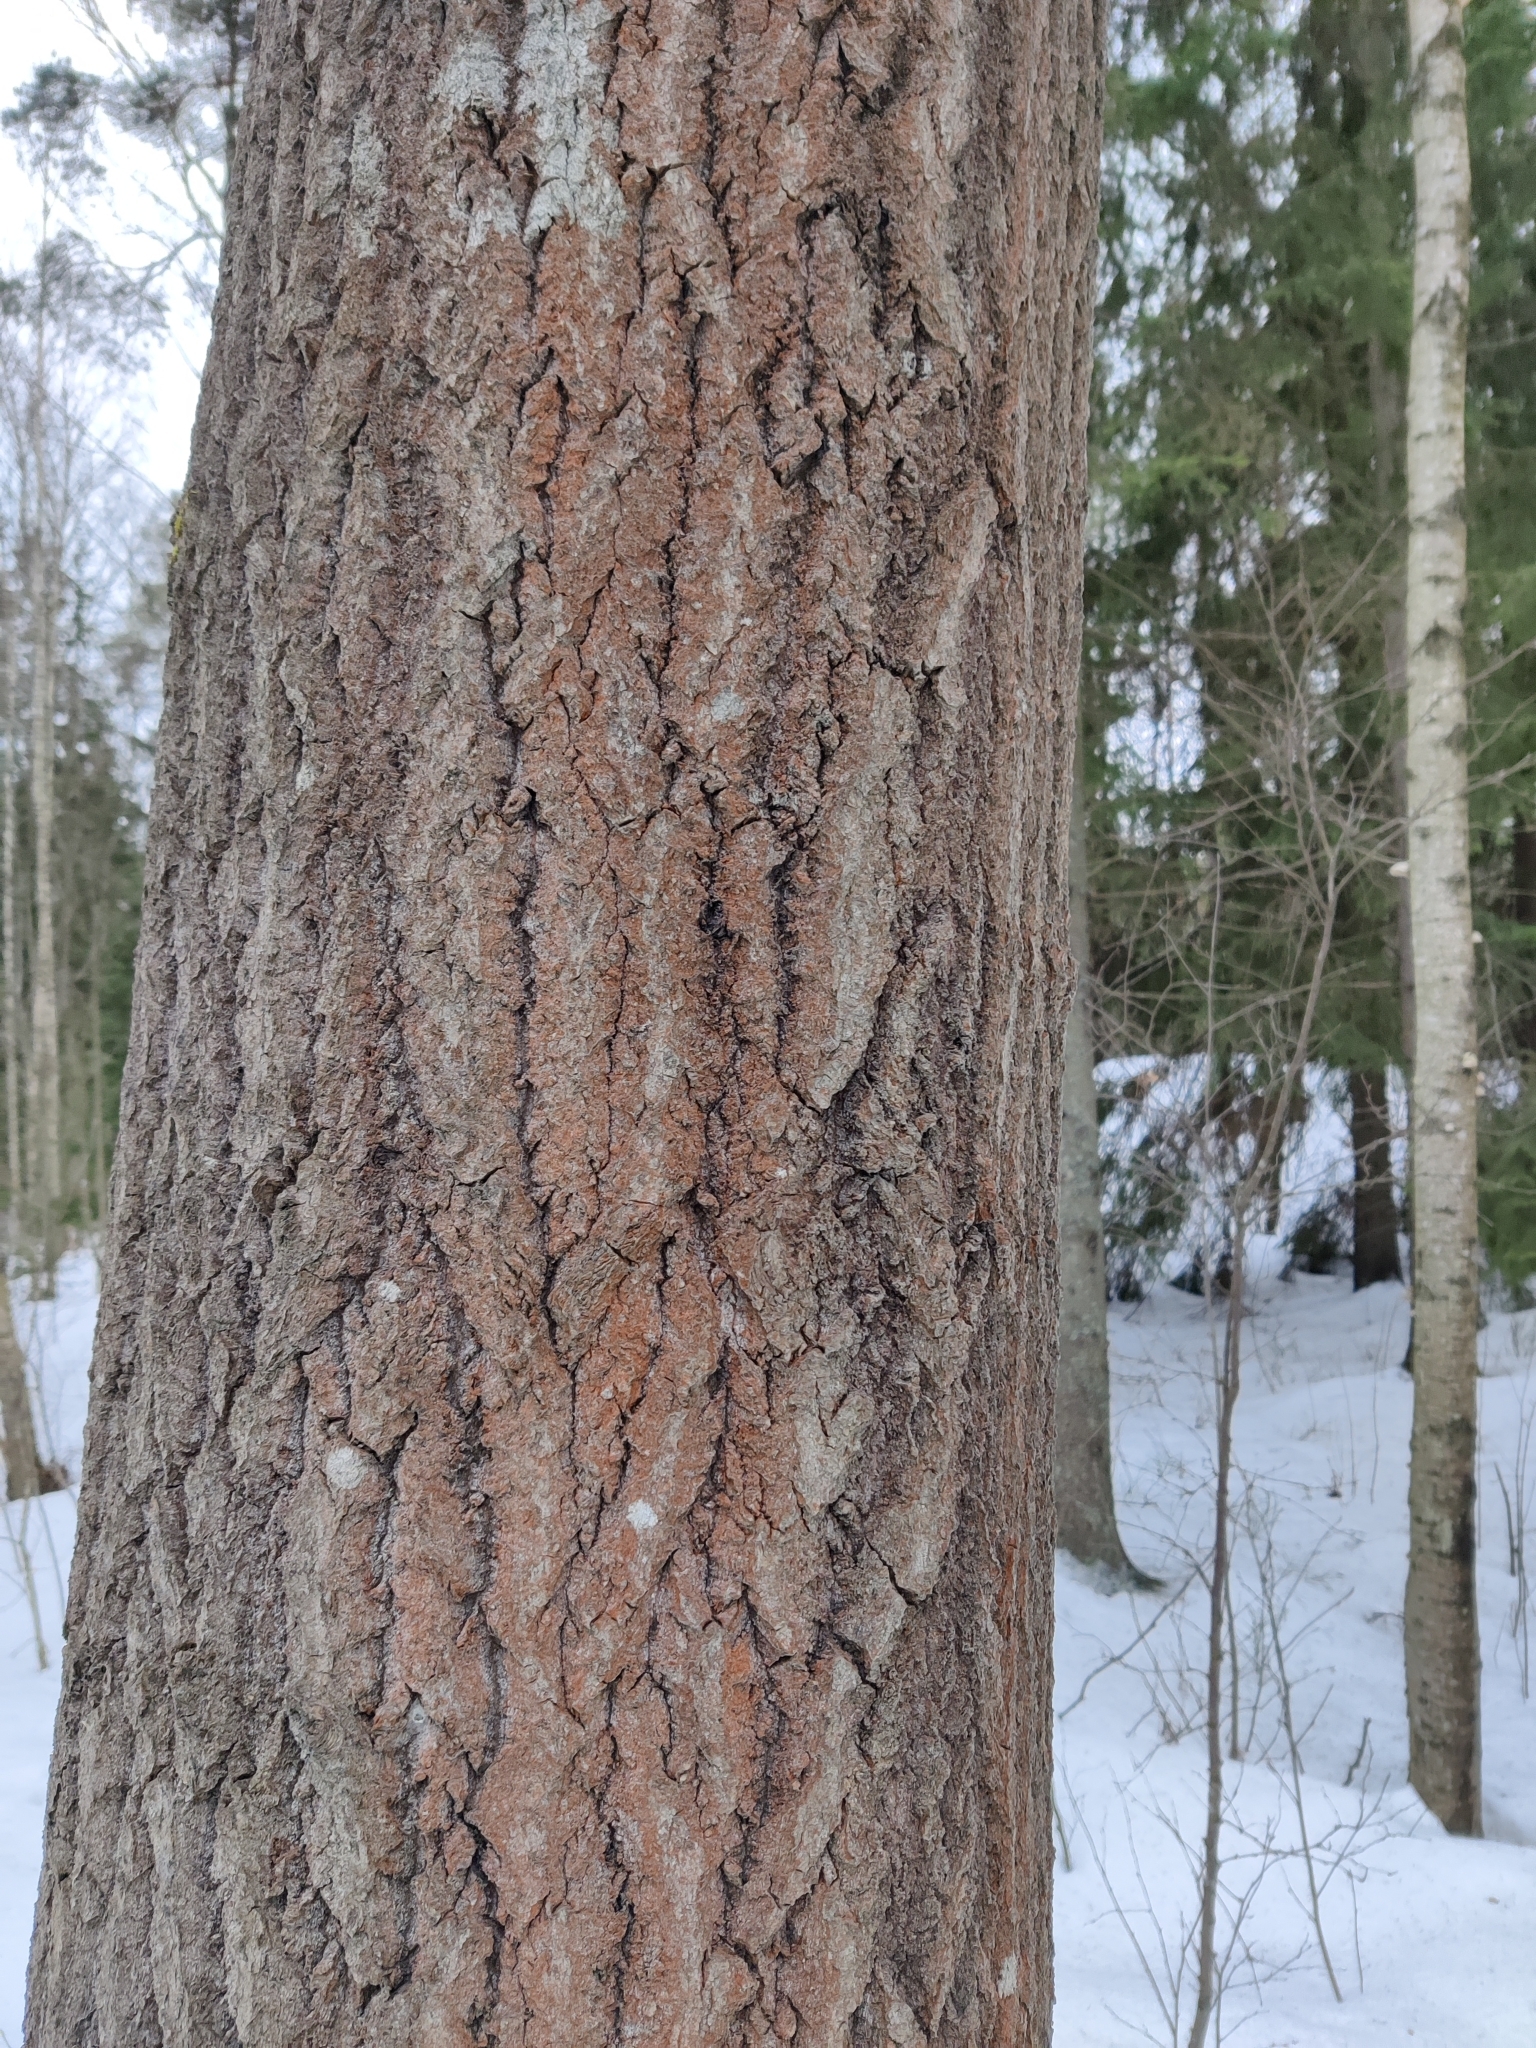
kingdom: Plantae
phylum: Chlorophyta
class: Ulvophyceae
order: Trentepohliales
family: Trentepohliaceae
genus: Trentepohlia
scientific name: Trentepohlia umbrina
